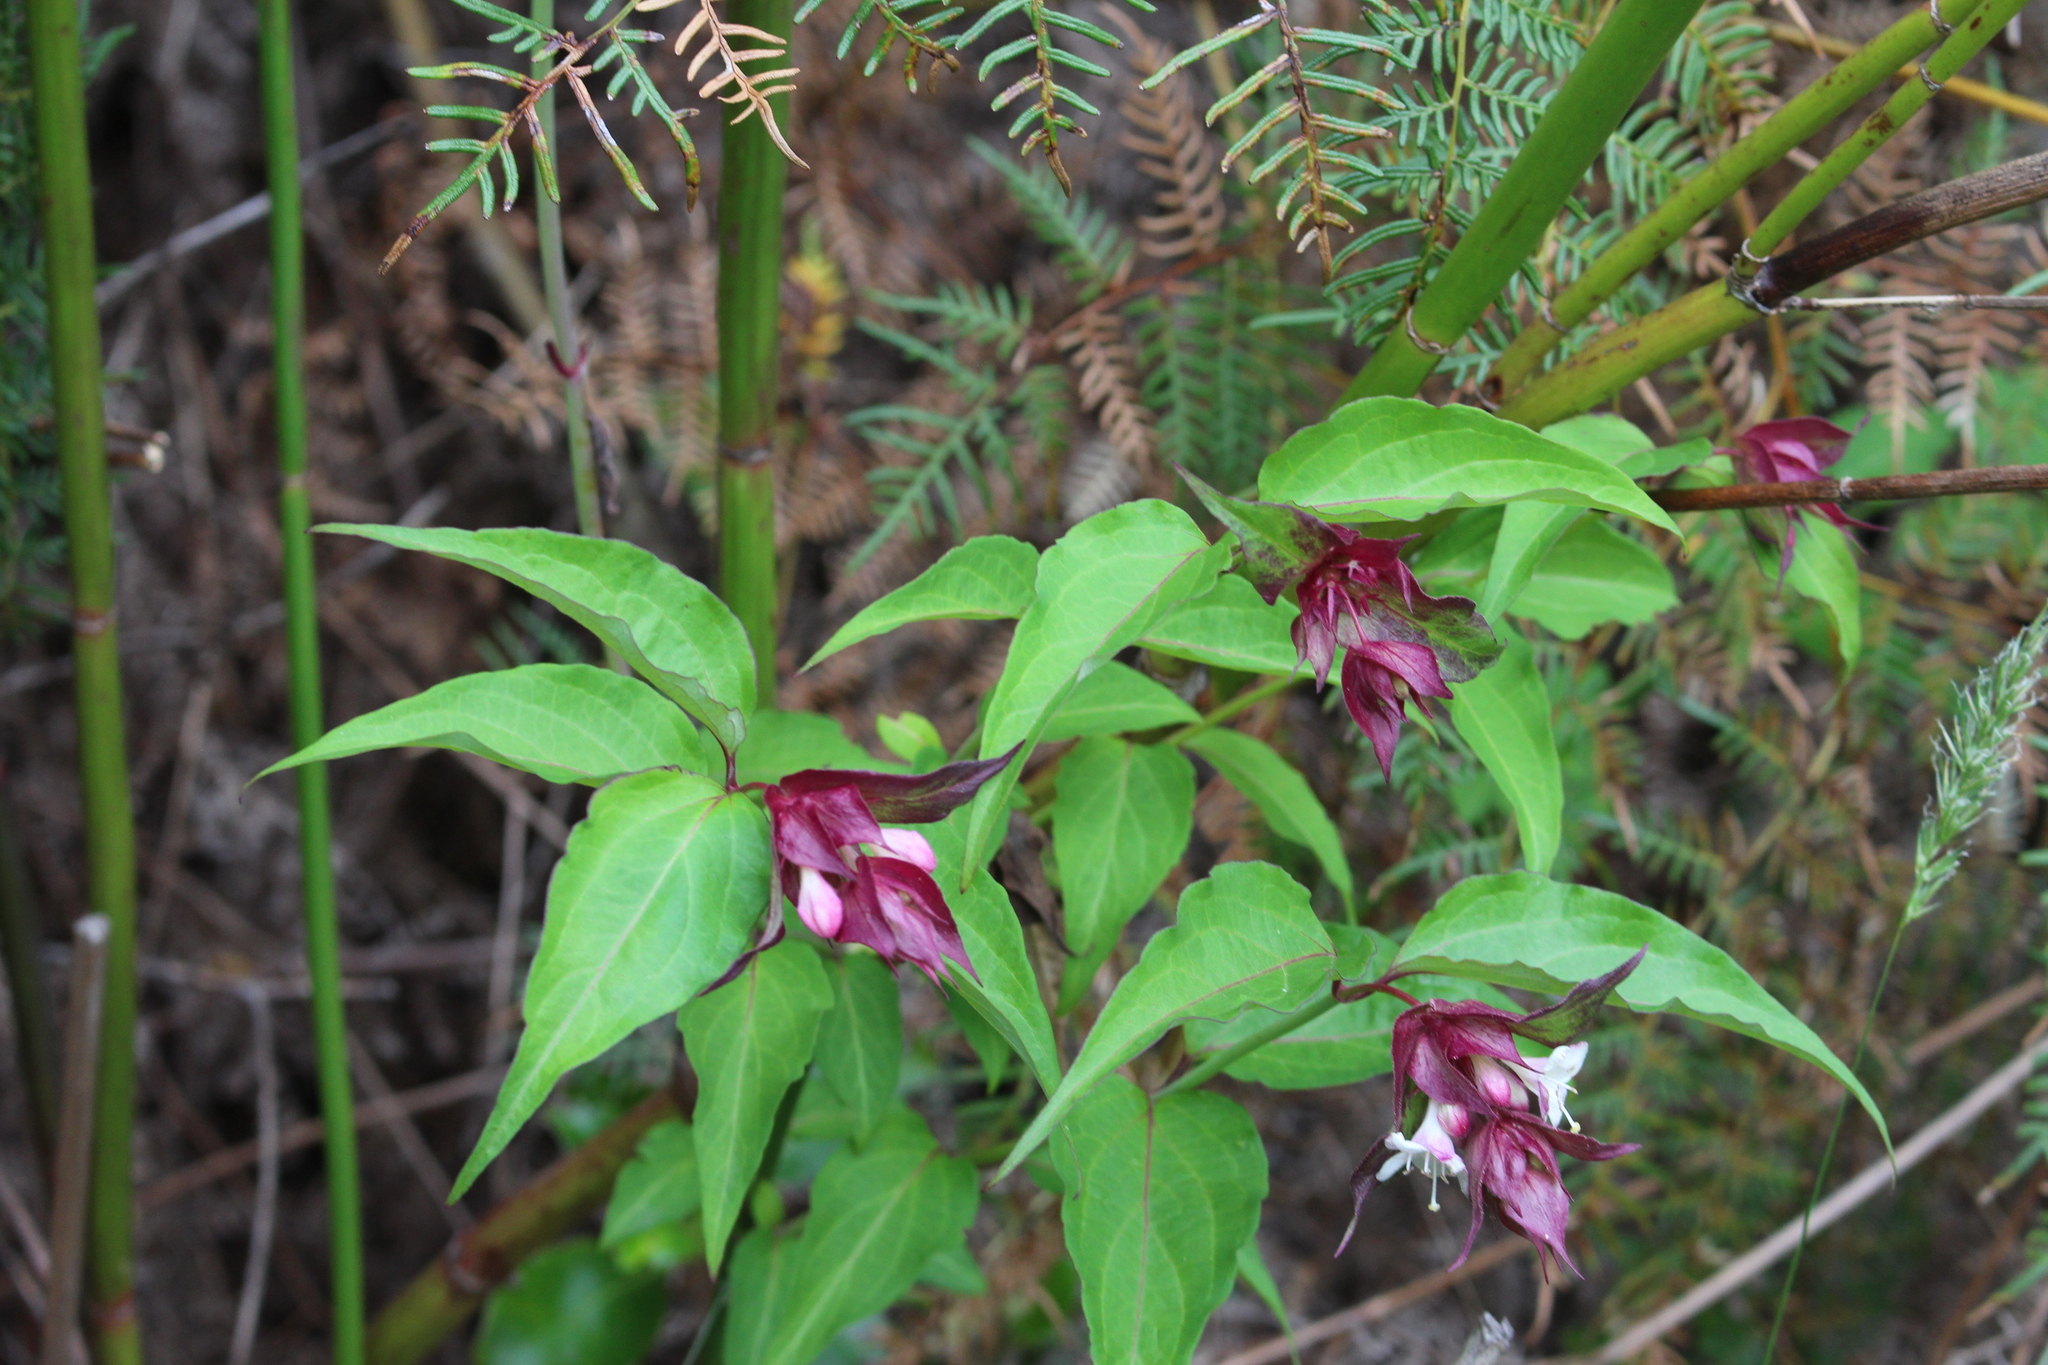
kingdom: Plantae
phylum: Tracheophyta
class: Magnoliopsida
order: Dipsacales
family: Caprifoliaceae
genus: Leycesteria
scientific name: Leycesteria formosa
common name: Himalayan honeysuckle
